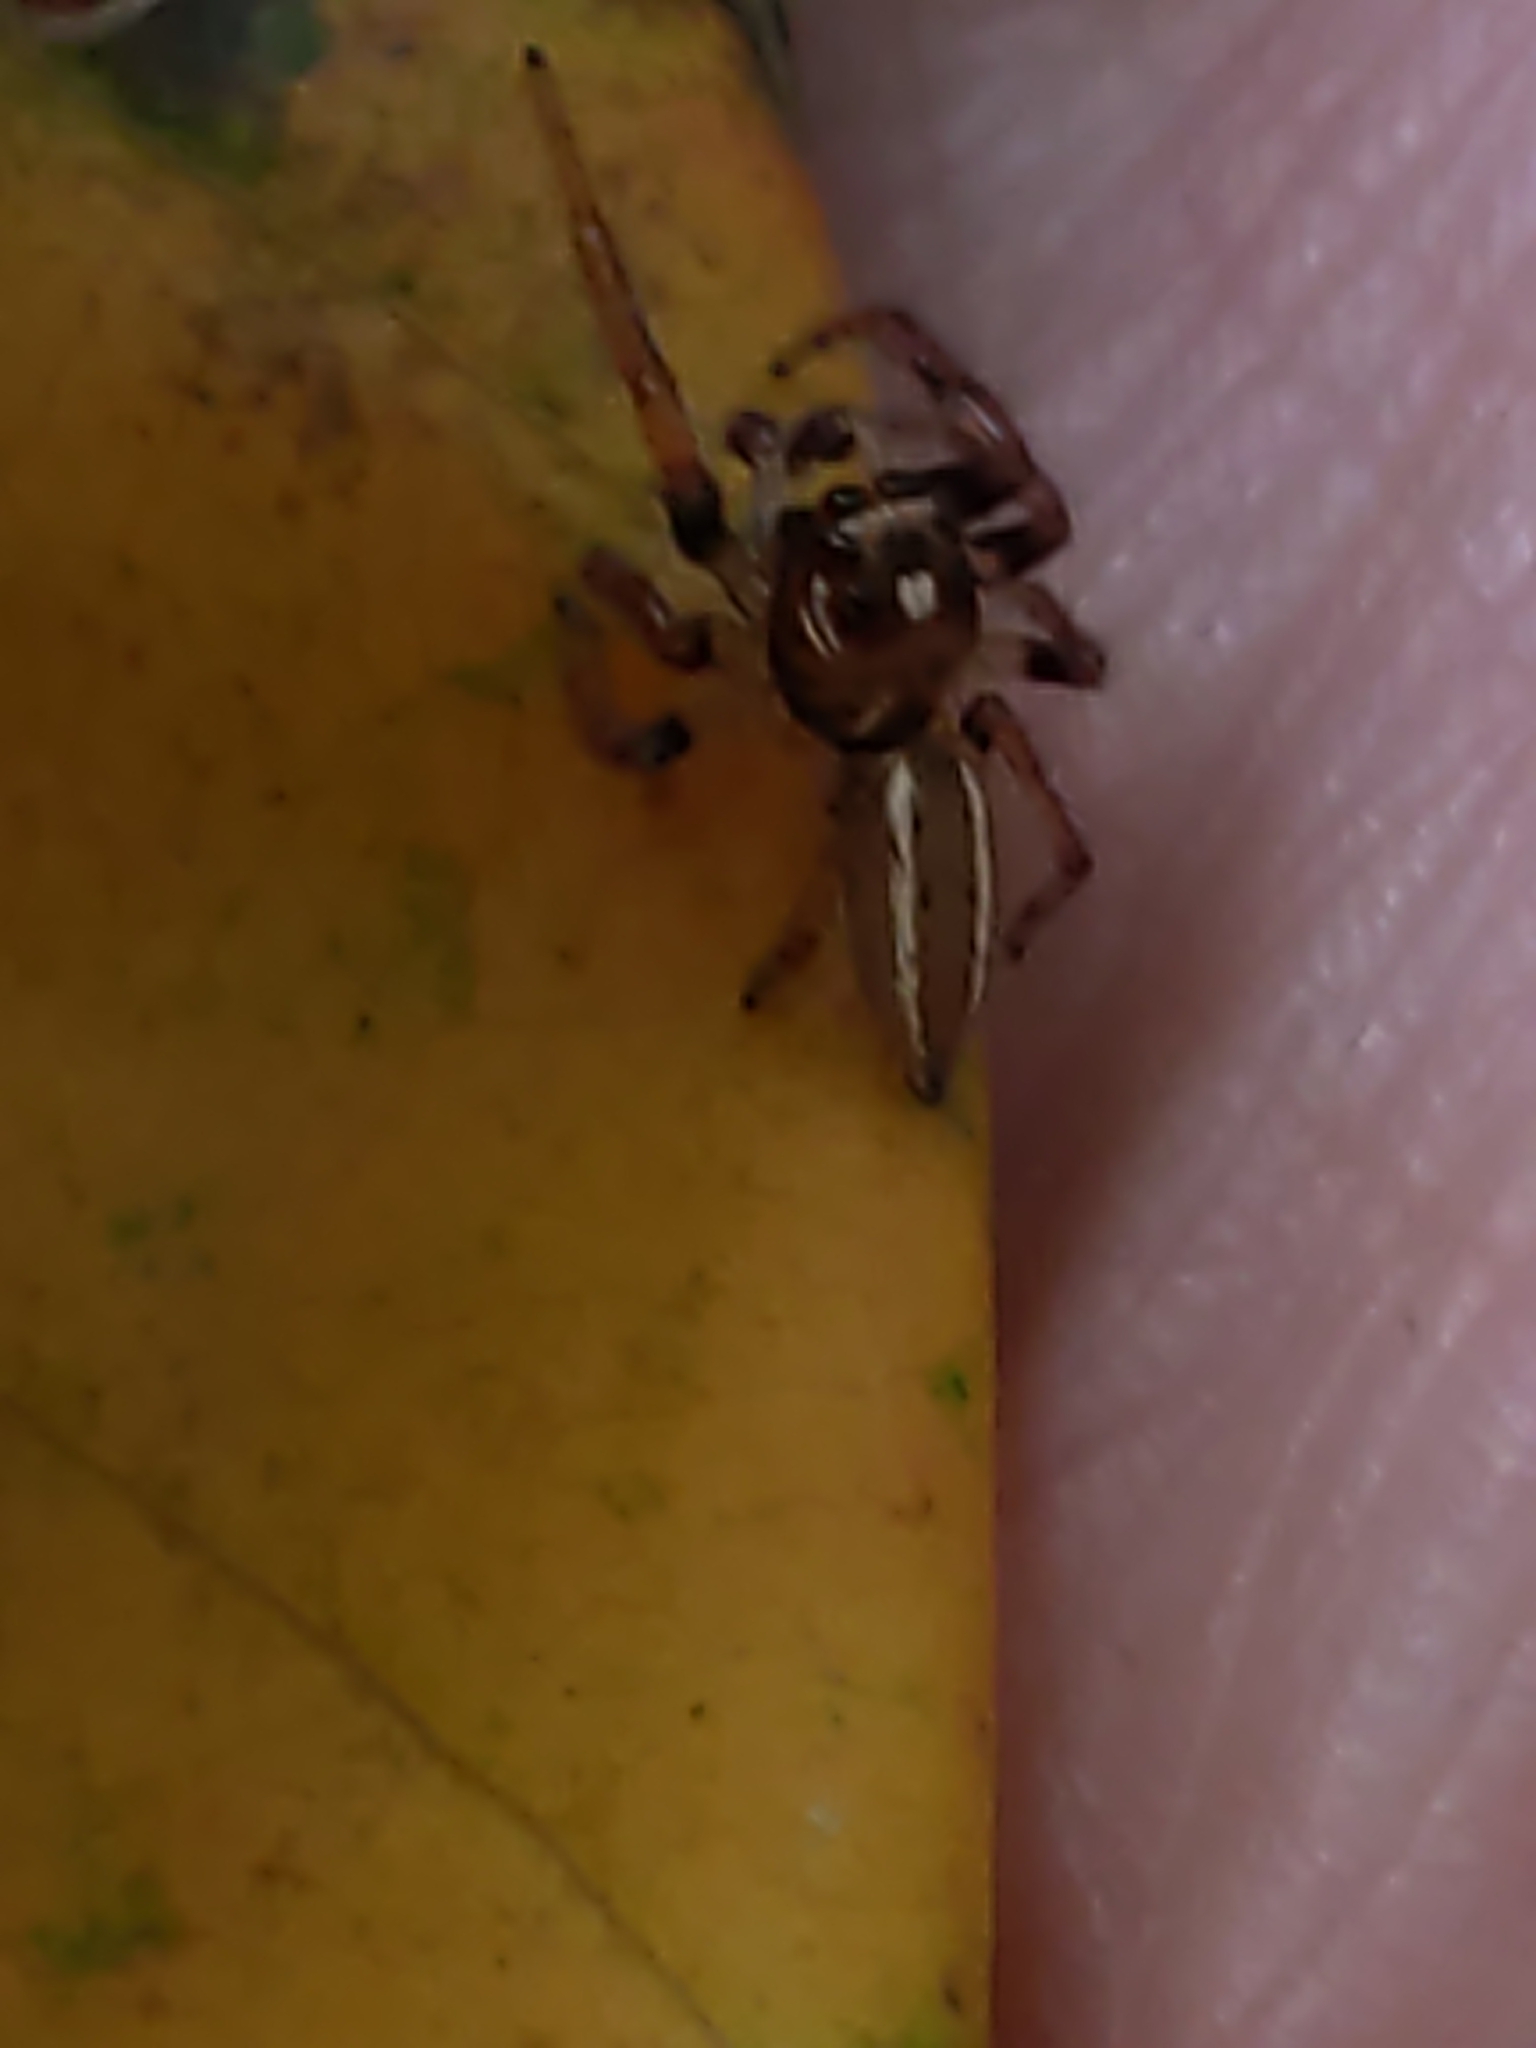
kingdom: Animalia
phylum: Arthropoda
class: Arachnida
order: Araneae
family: Salticidae
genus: Colonus
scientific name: Colonus sylvanus
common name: Jumping spiders
